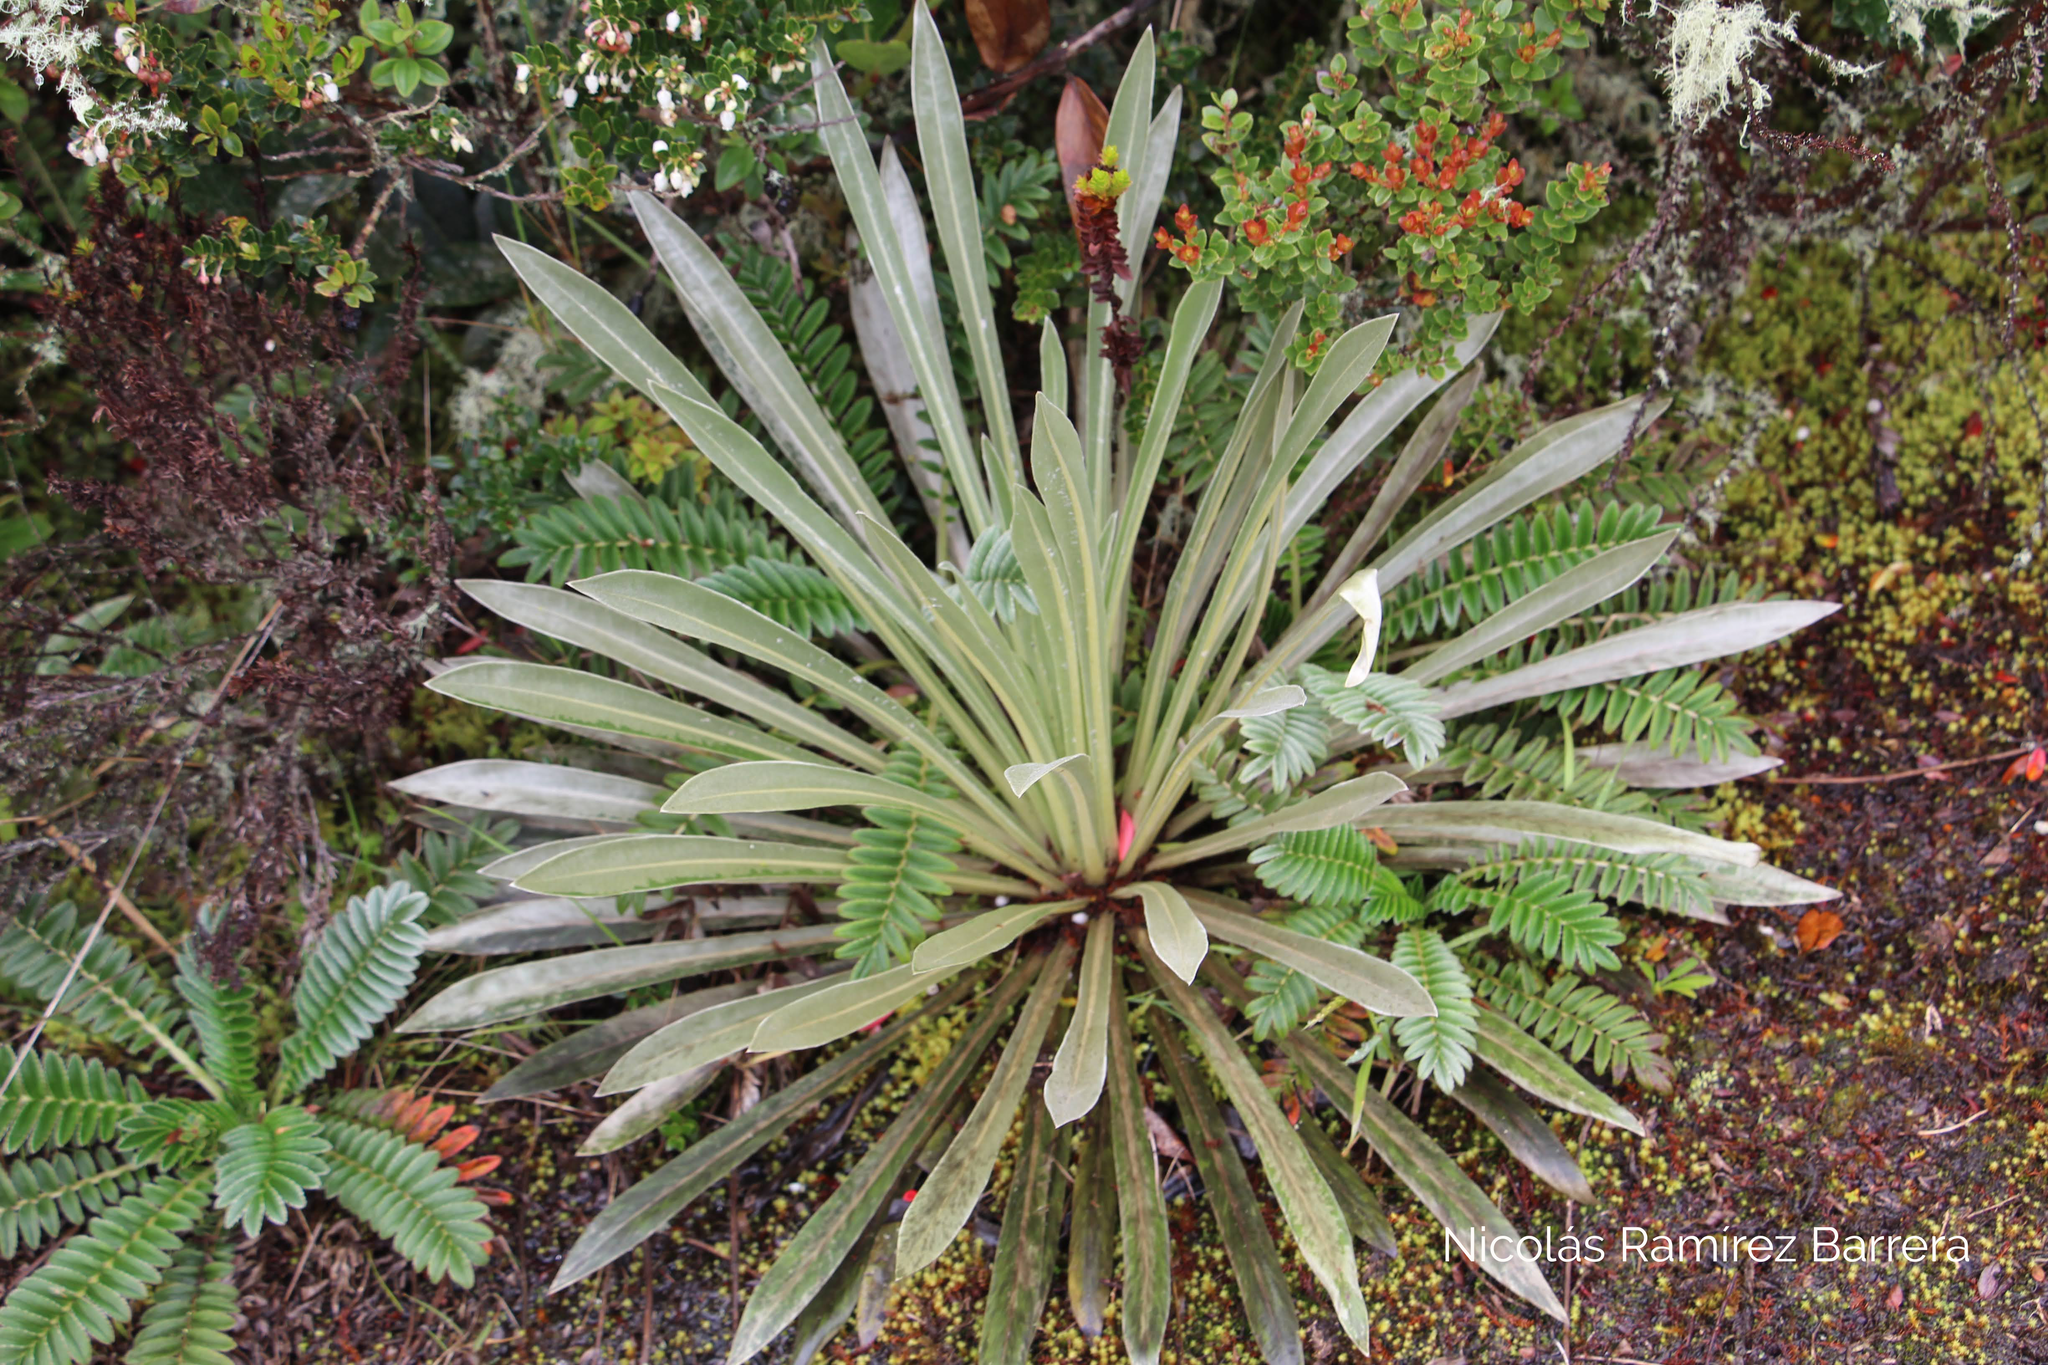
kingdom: Plantae
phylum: Tracheophyta
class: Magnoliopsida
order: Asterales
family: Asteraceae
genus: Espeletia
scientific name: Espeletia argentea
